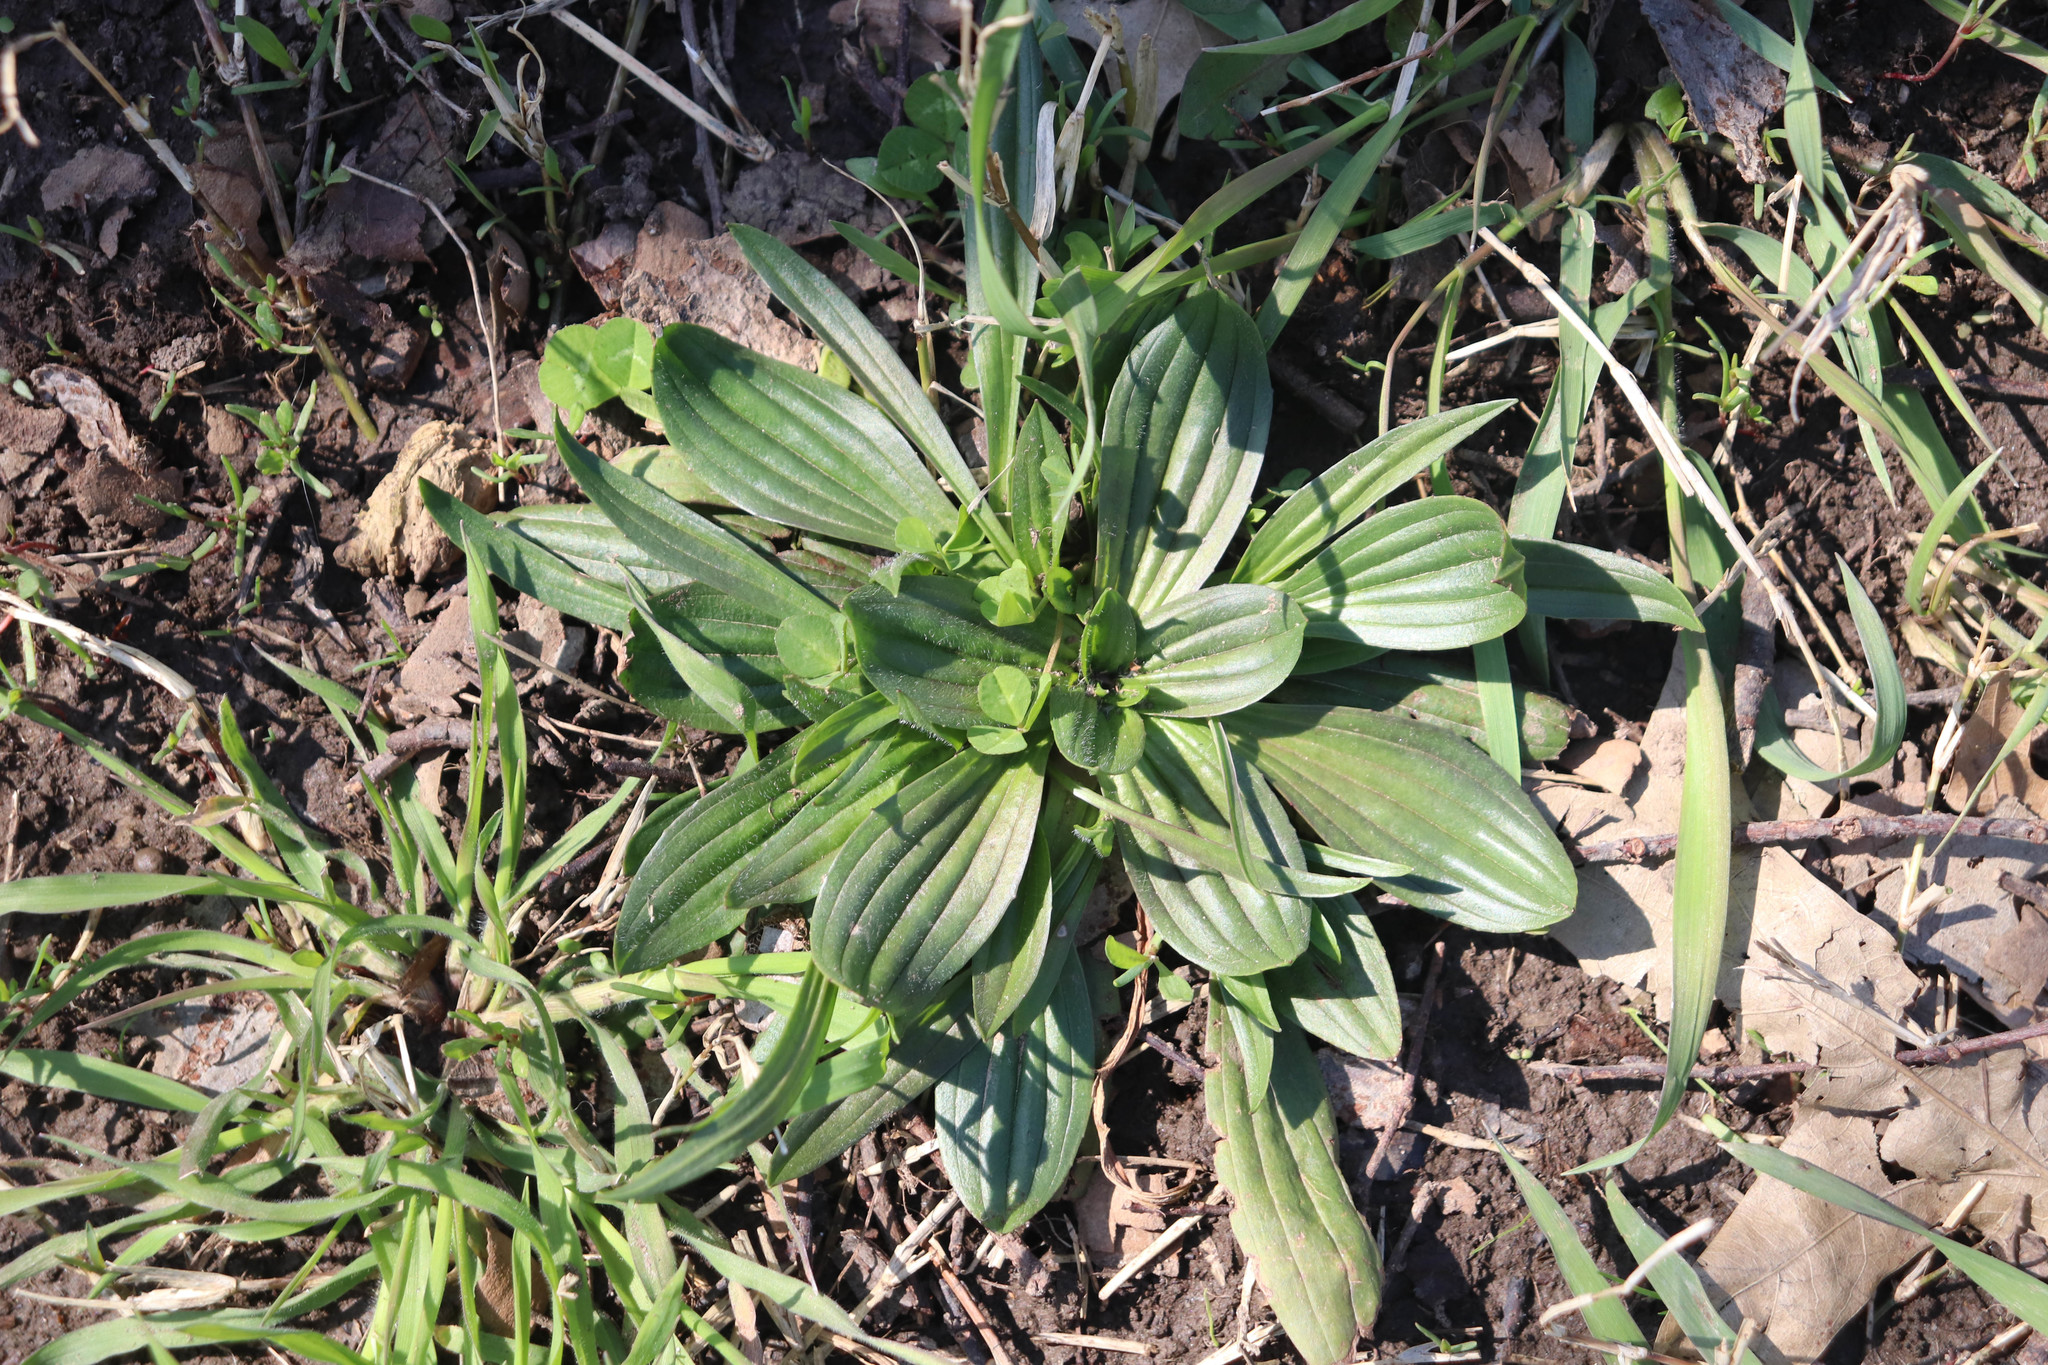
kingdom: Plantae
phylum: Tracheophyta
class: Magnoliopsida
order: Lamiales
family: Plantaginaceae
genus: Plantago
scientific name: Plantago lanceolata
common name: Ribwort plantain
